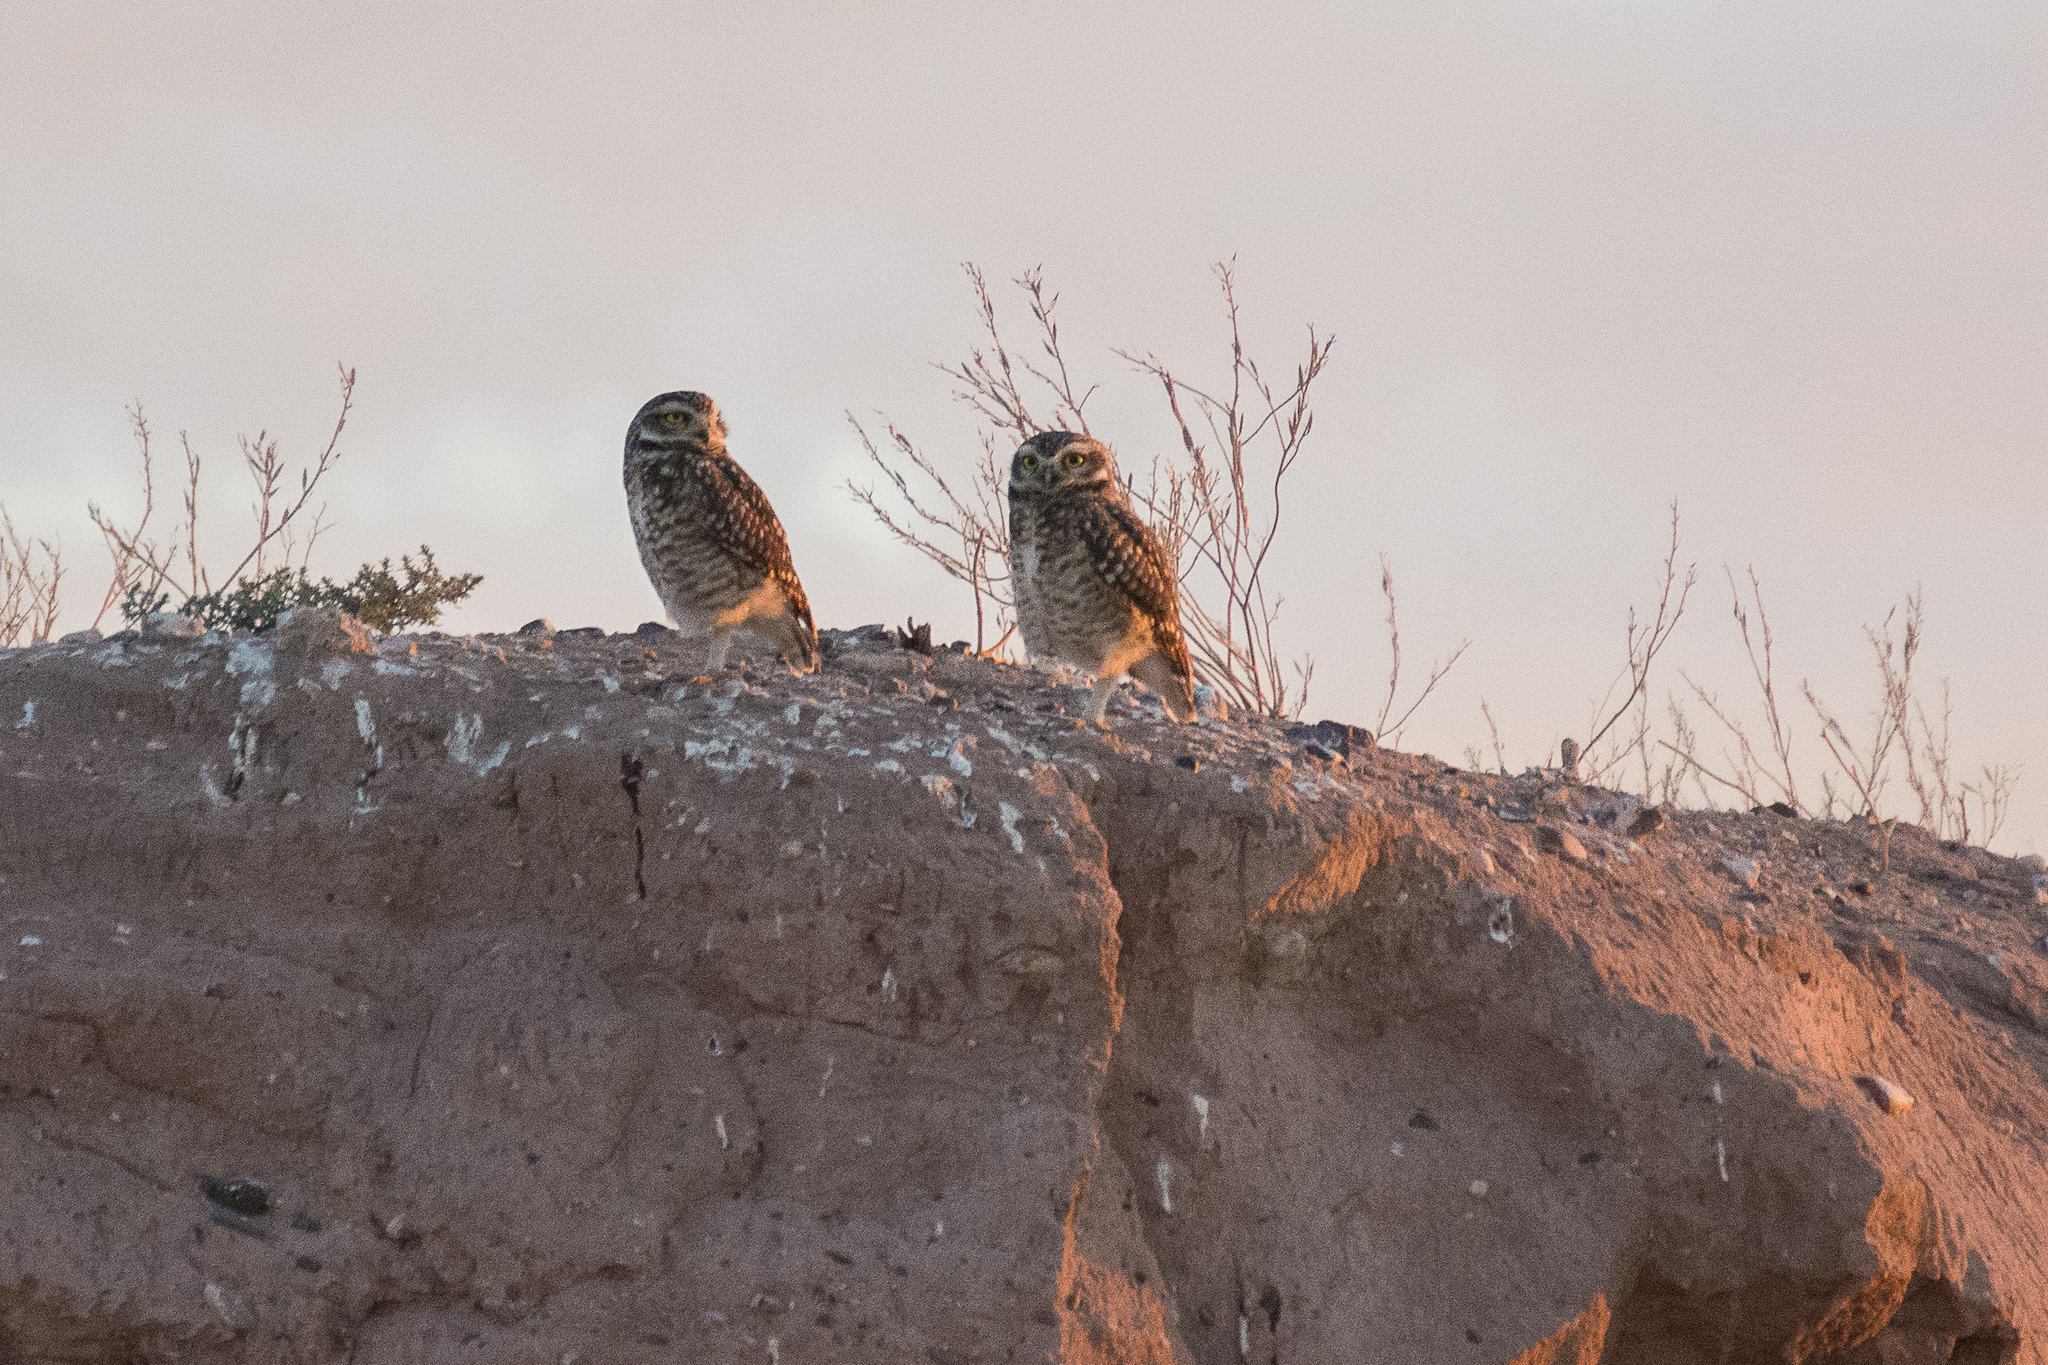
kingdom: Animalia
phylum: Chordata
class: Aves
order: Strigiformes
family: Strigidae
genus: Athene
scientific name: Athene cunicularia
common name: Burrowing owl
